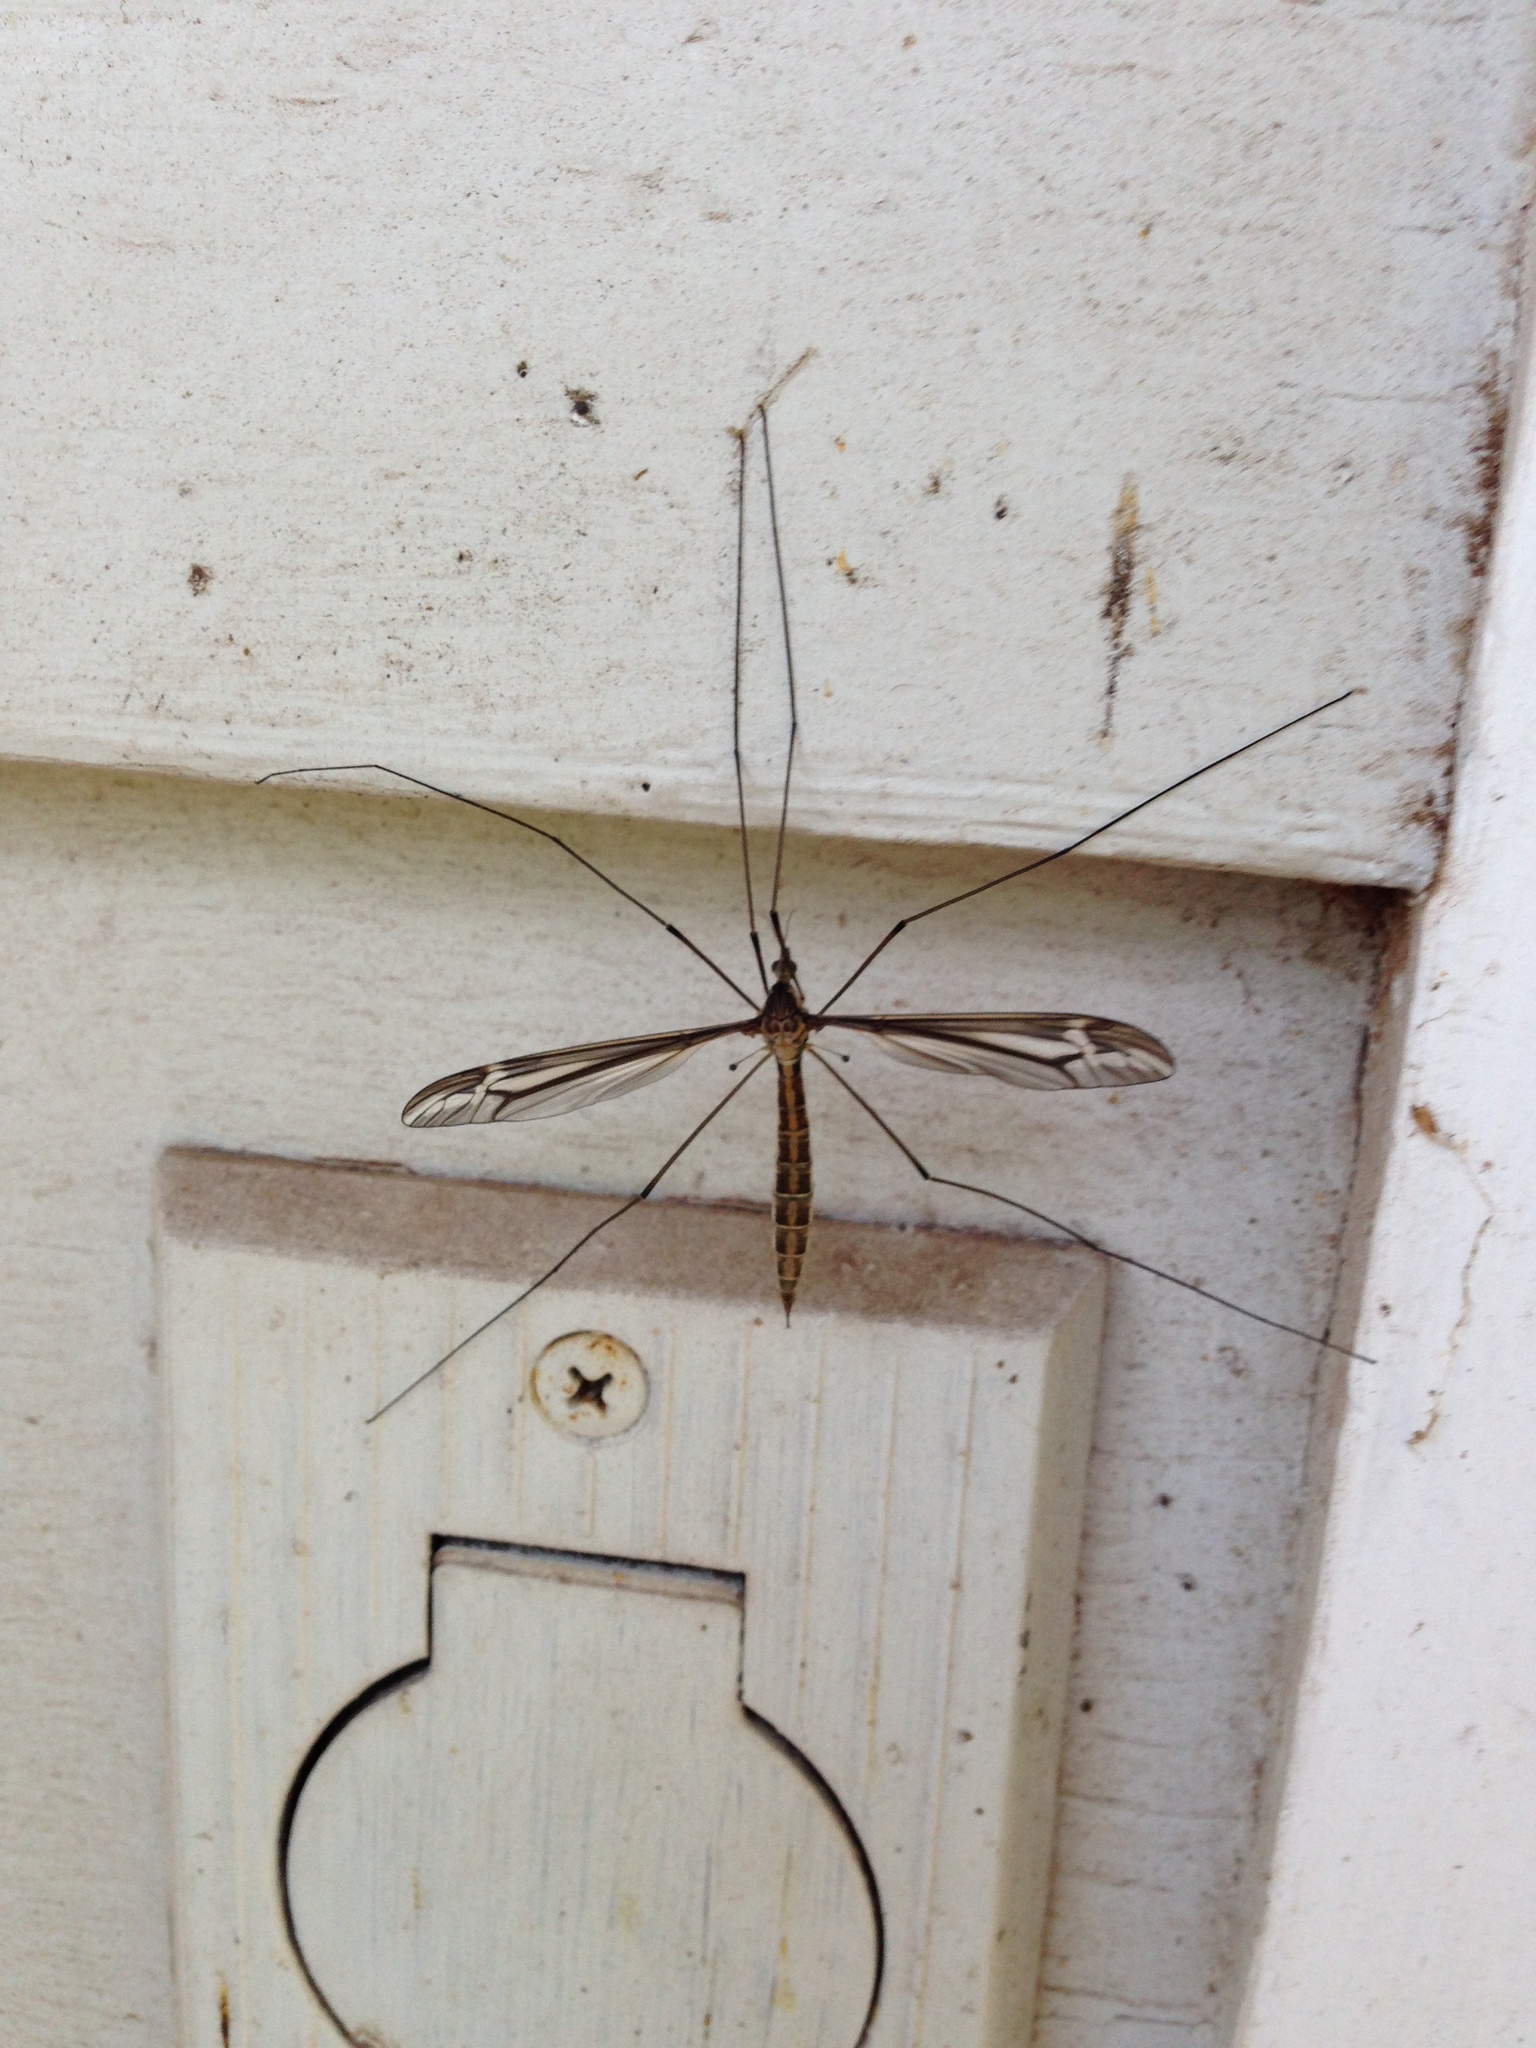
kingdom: Animalia
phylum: Arthropoda
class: Insecta
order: Diptera
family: Tipulidae
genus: Tipula
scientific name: Tipula caloptera
